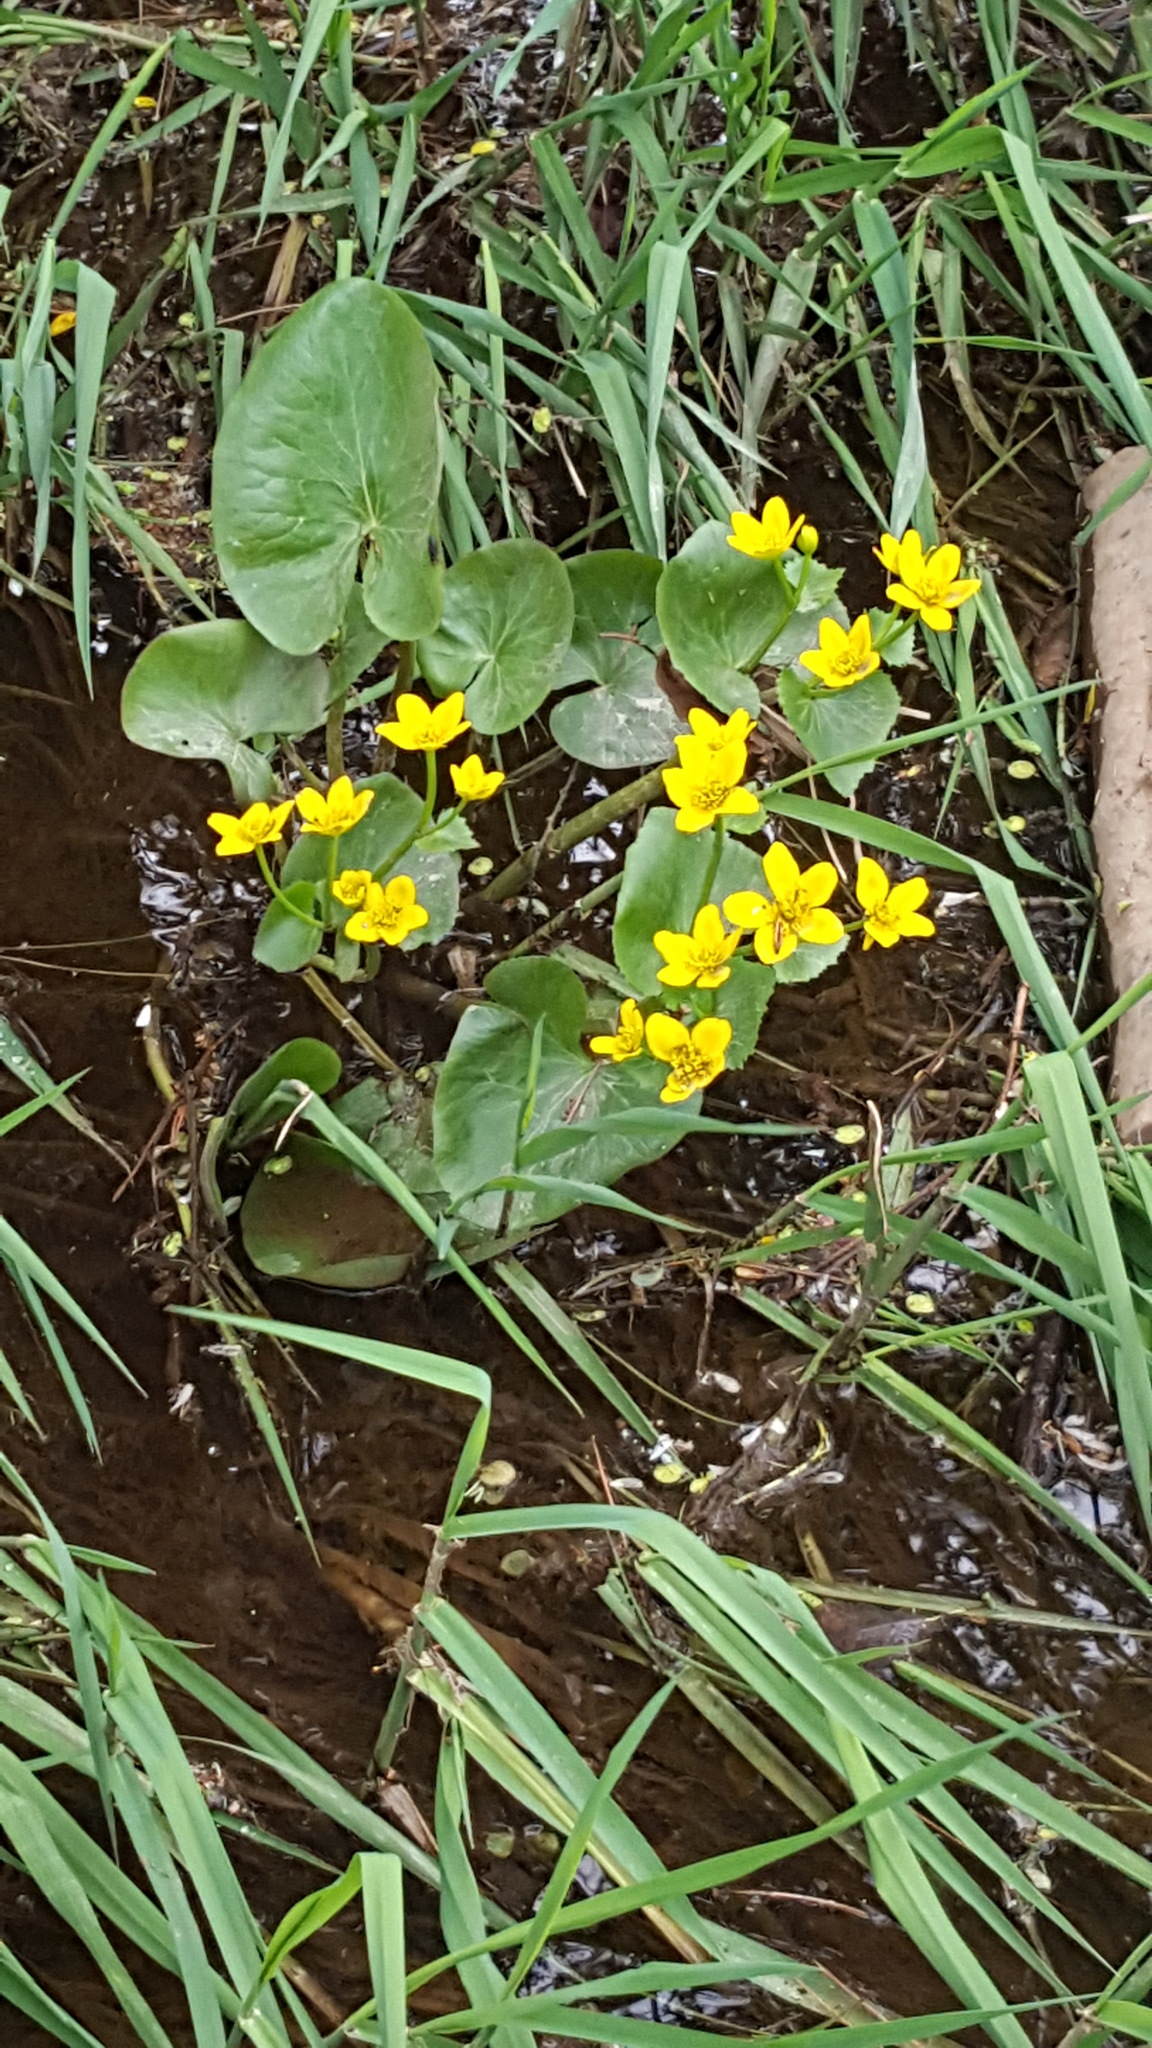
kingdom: Plantae
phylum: Tracheophyta
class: Magnoliopsida
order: Ranunculales
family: Ranunculaceae
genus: Caltha
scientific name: Caltha palustris
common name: Marsh marigold
